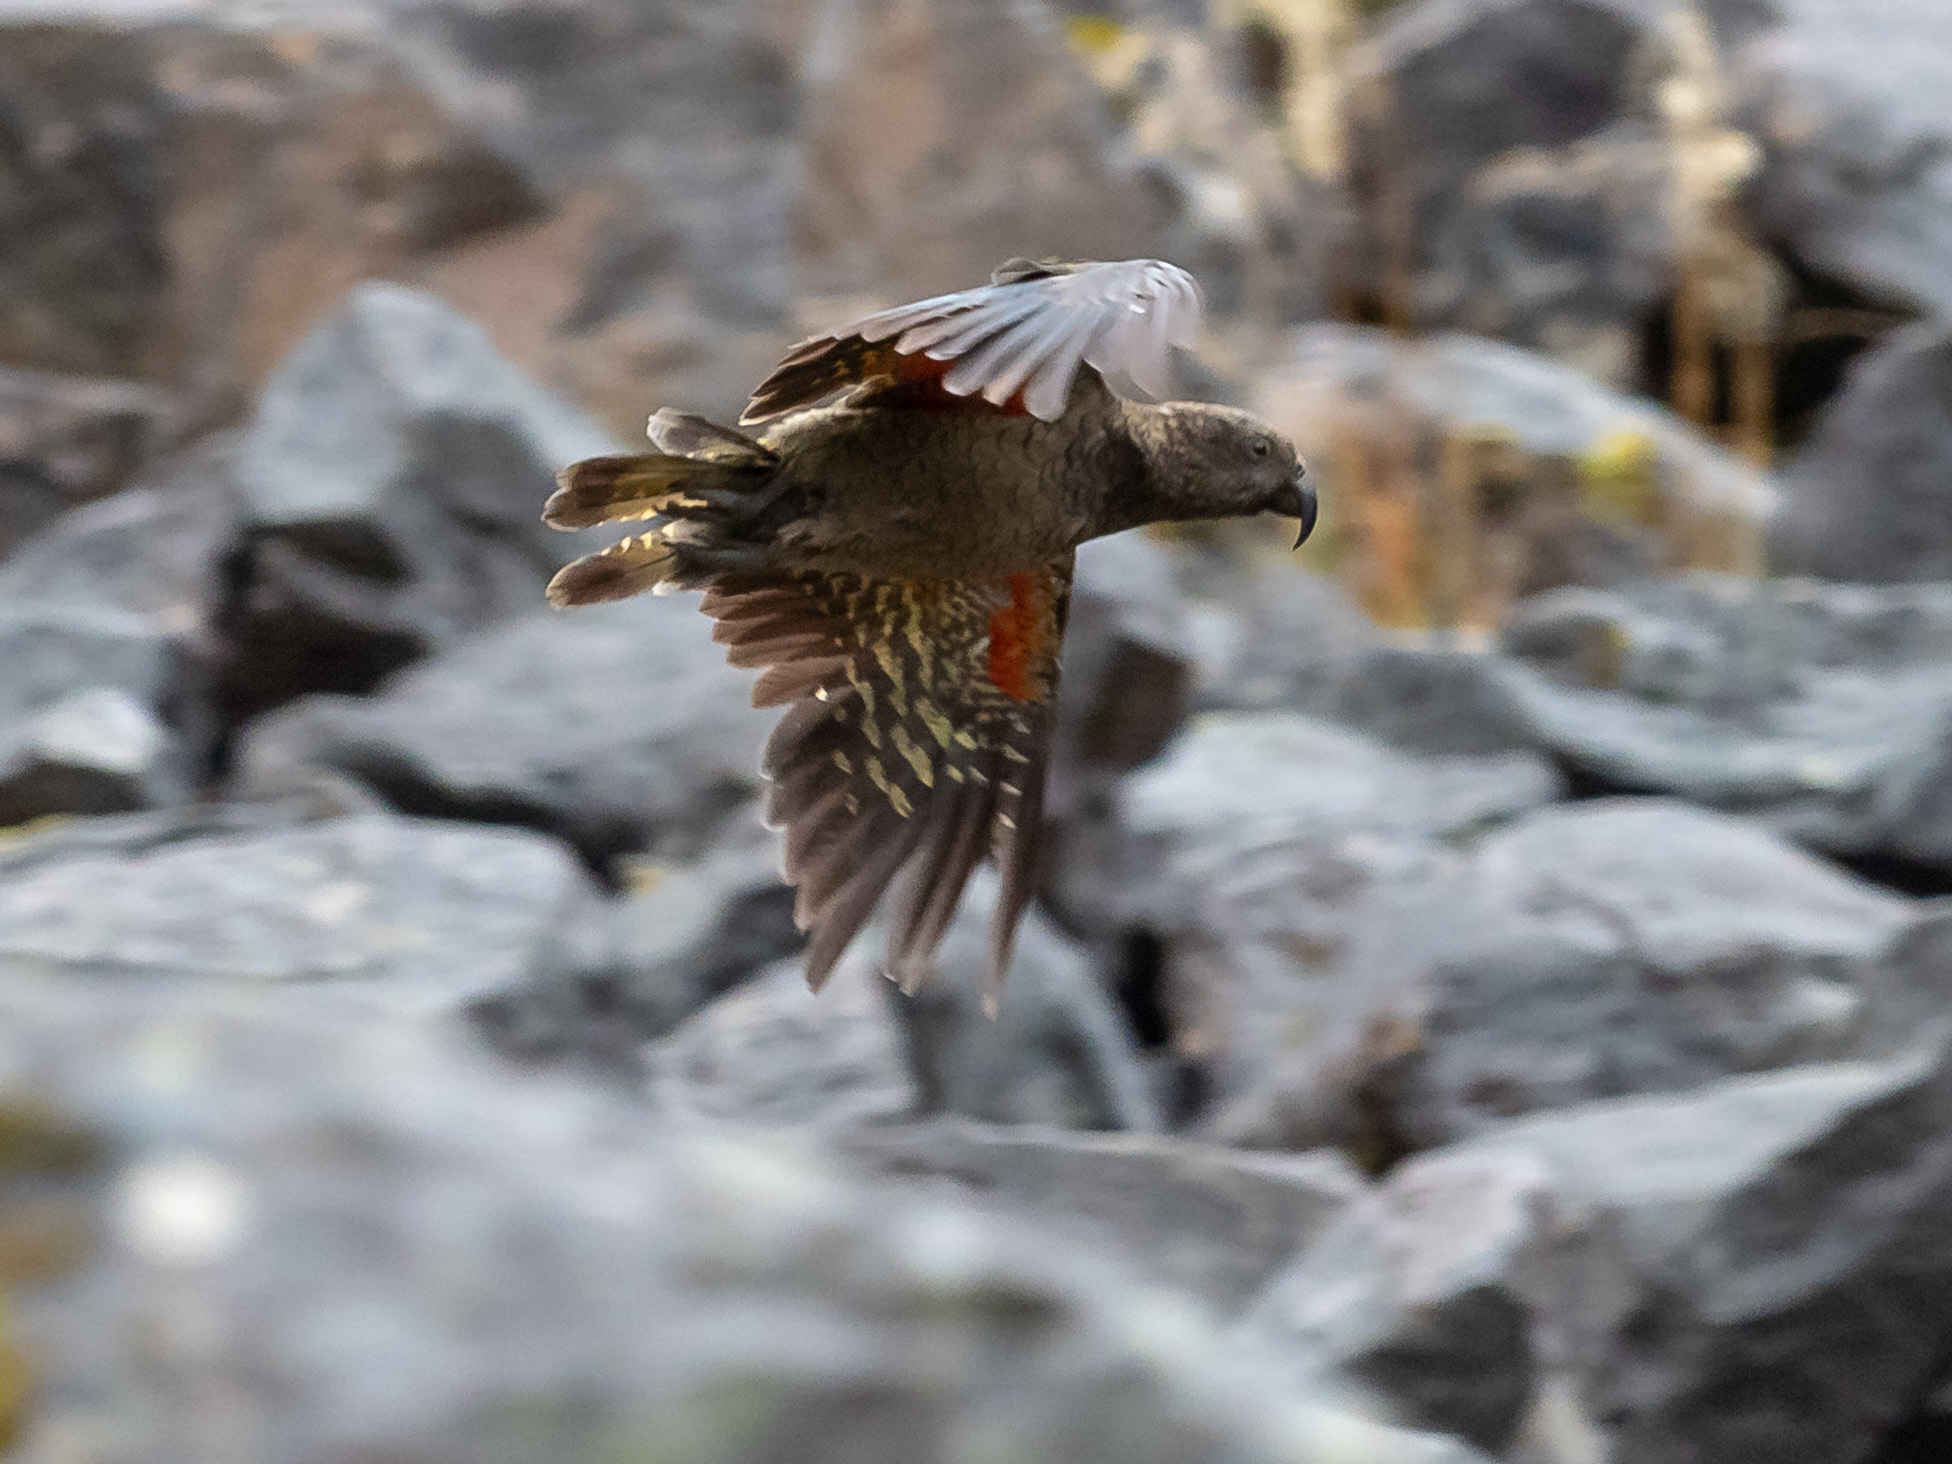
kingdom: Animalia
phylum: Chordata
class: Aves
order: Psittaciformes
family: Psittacidae
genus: Nestor
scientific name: Nestor notabilis
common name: Kea
